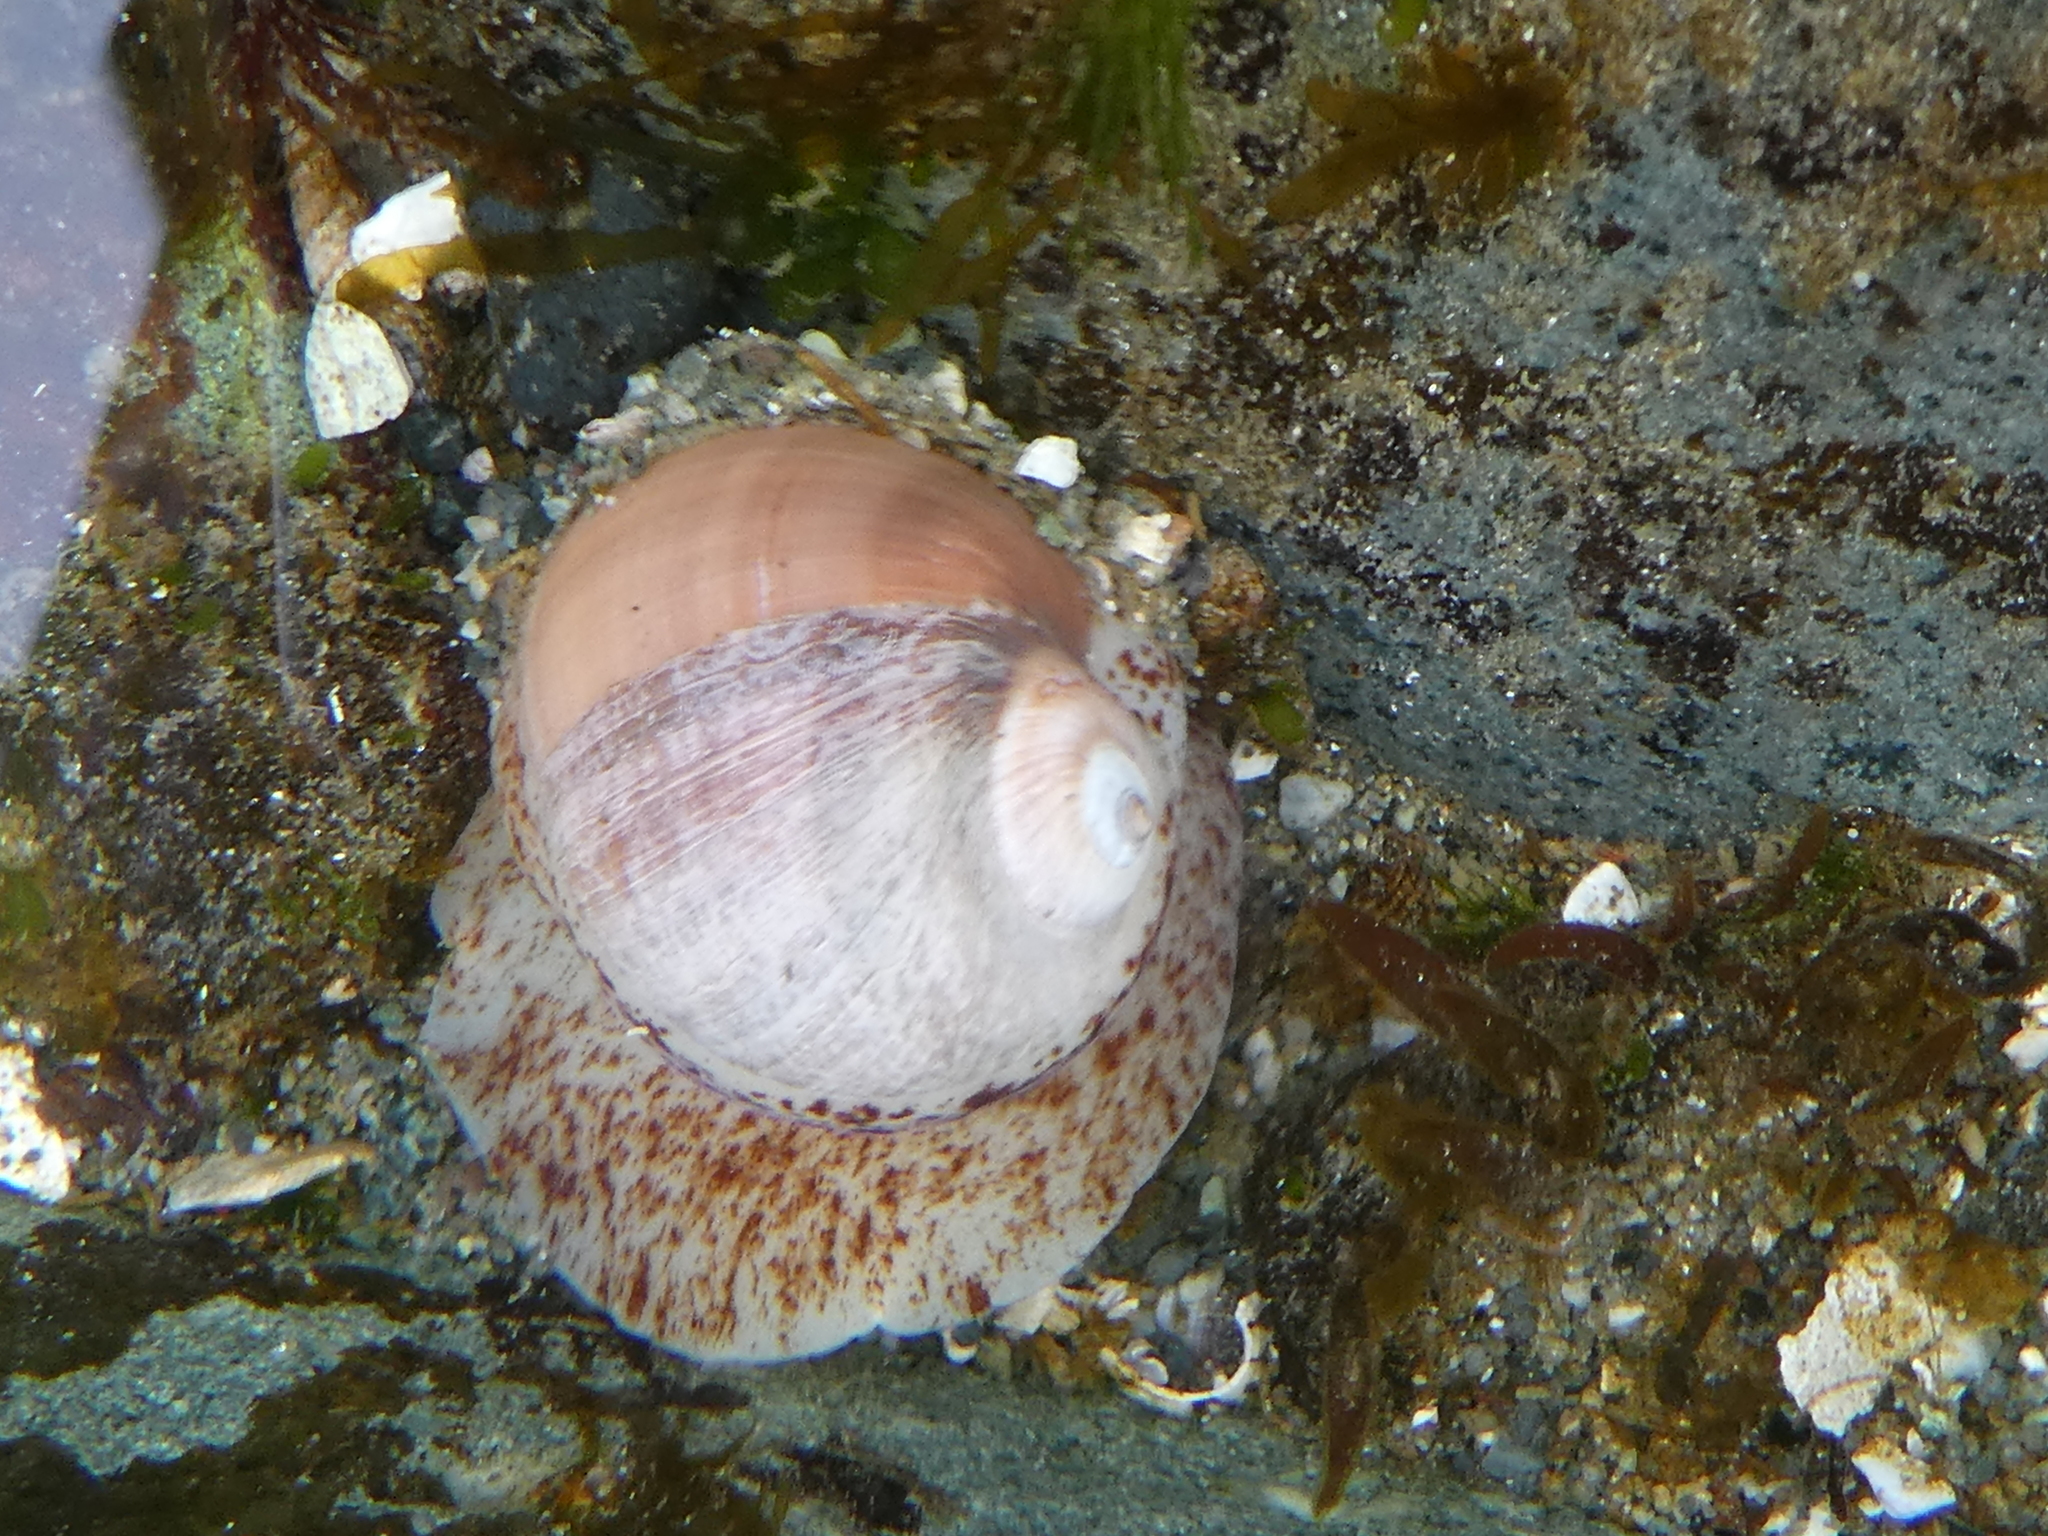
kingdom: Animalia
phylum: Mollusca
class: Gastropoda
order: Littorinimorpha
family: Naticidae
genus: Cryptonatica
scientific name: Cryptonatica aleutica
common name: Aleutian moon snail
